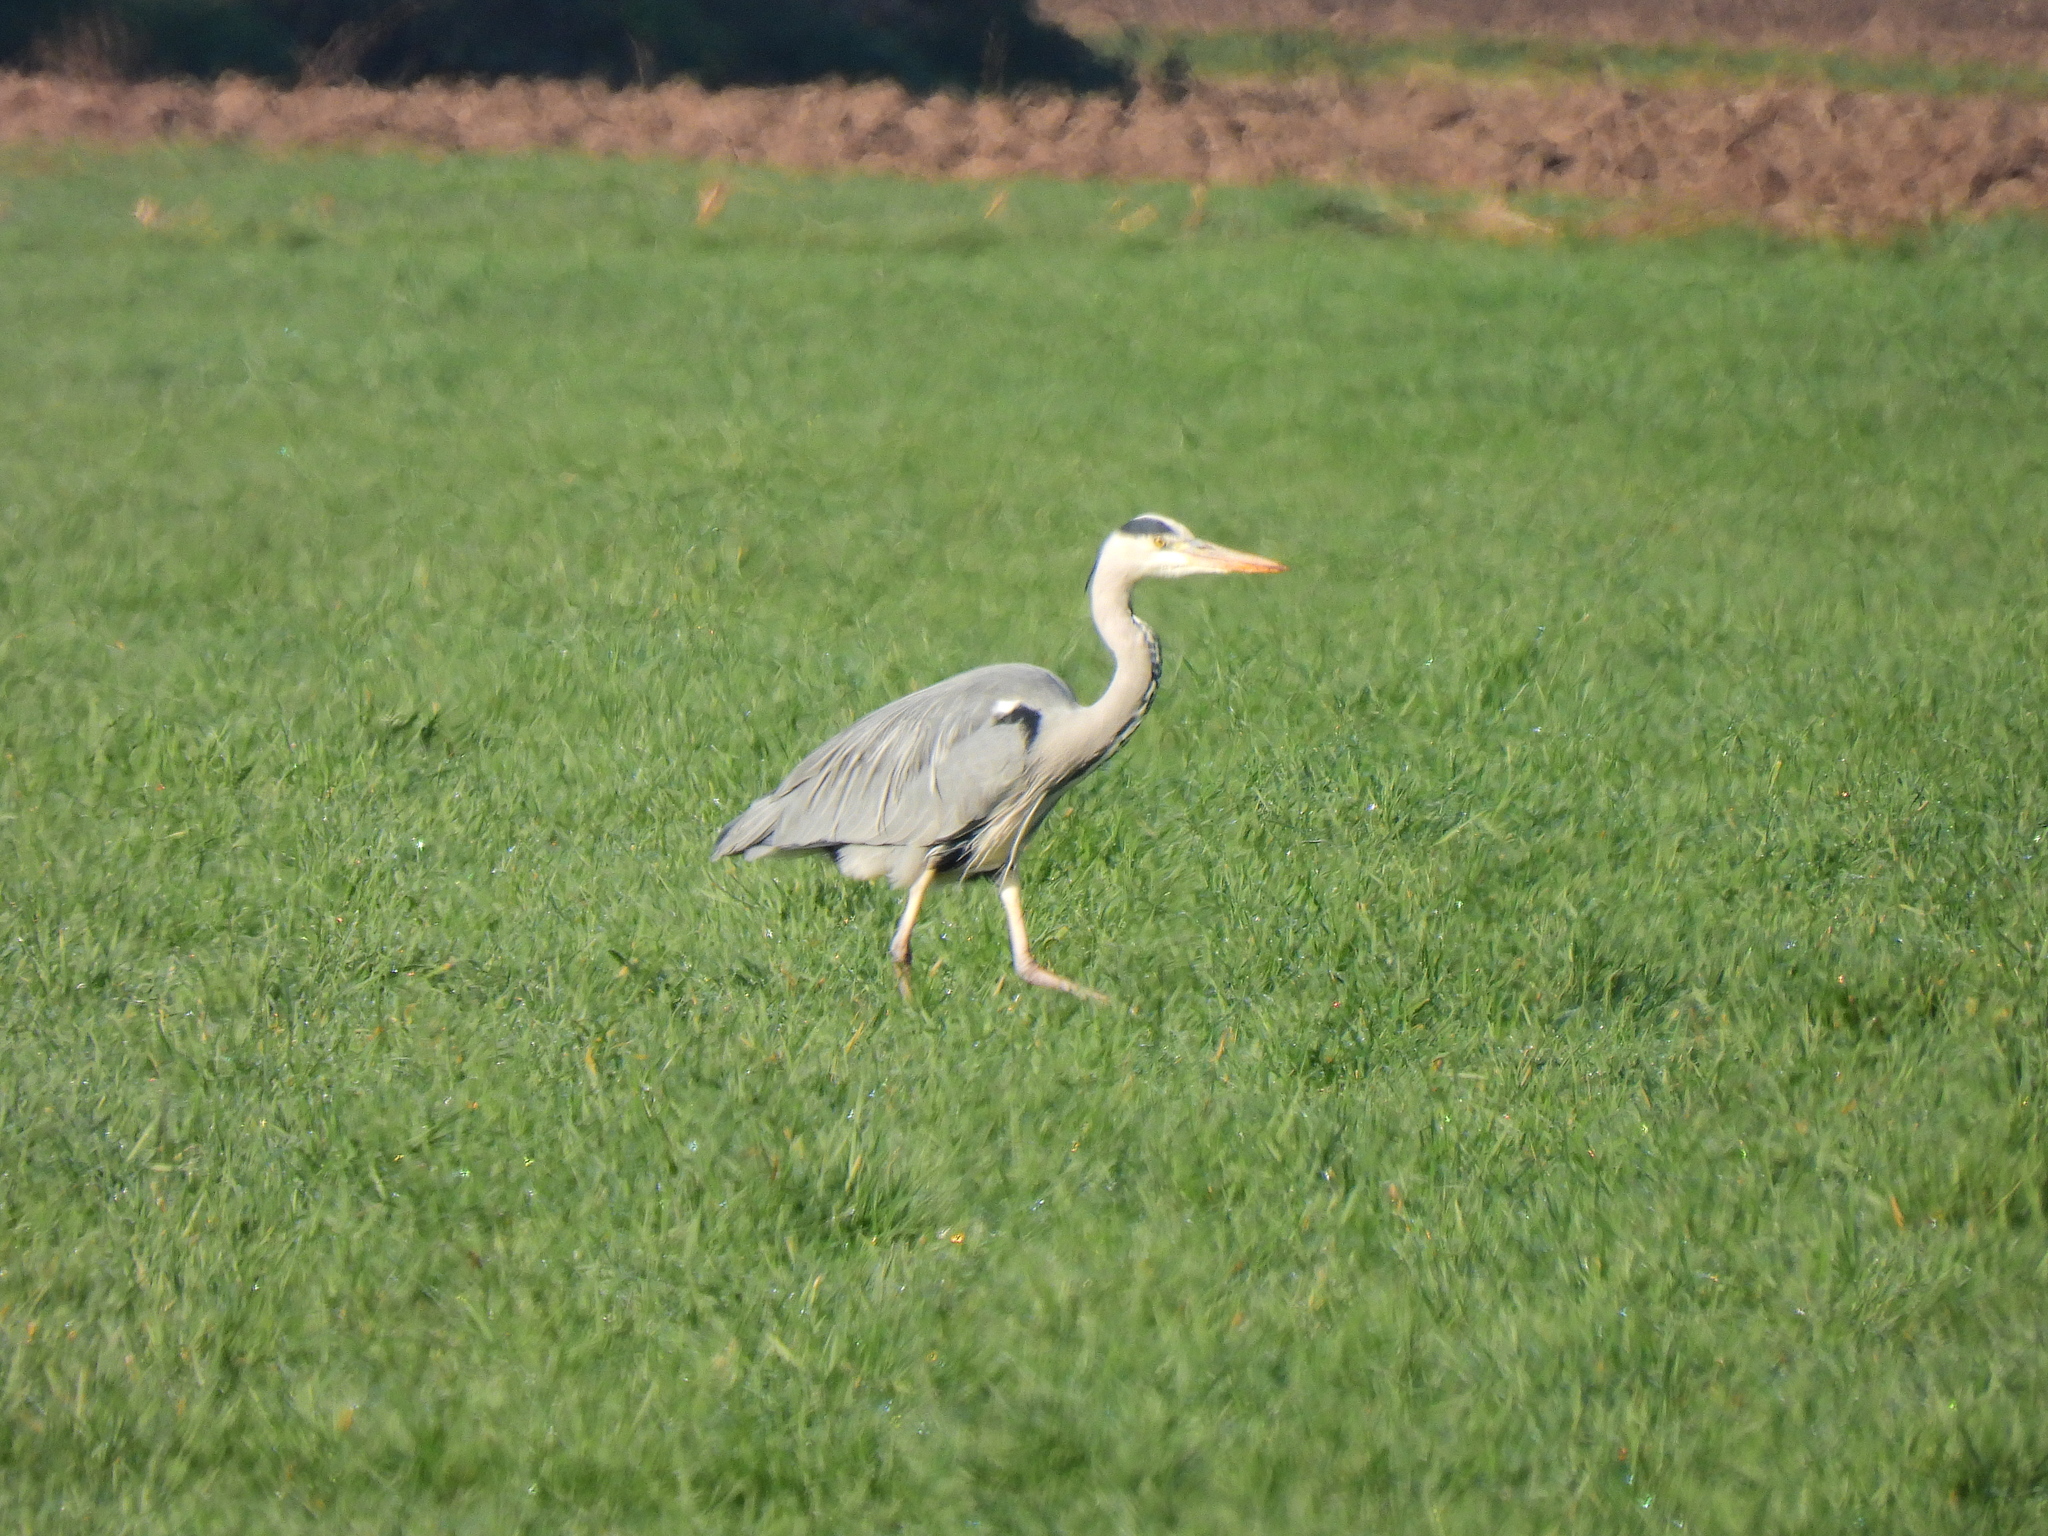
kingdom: Animalia
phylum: Chordata
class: Aves
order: Pelecaniformes
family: Ardeidae
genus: Ardea
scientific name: Ardea cinerea
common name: Grey heron
